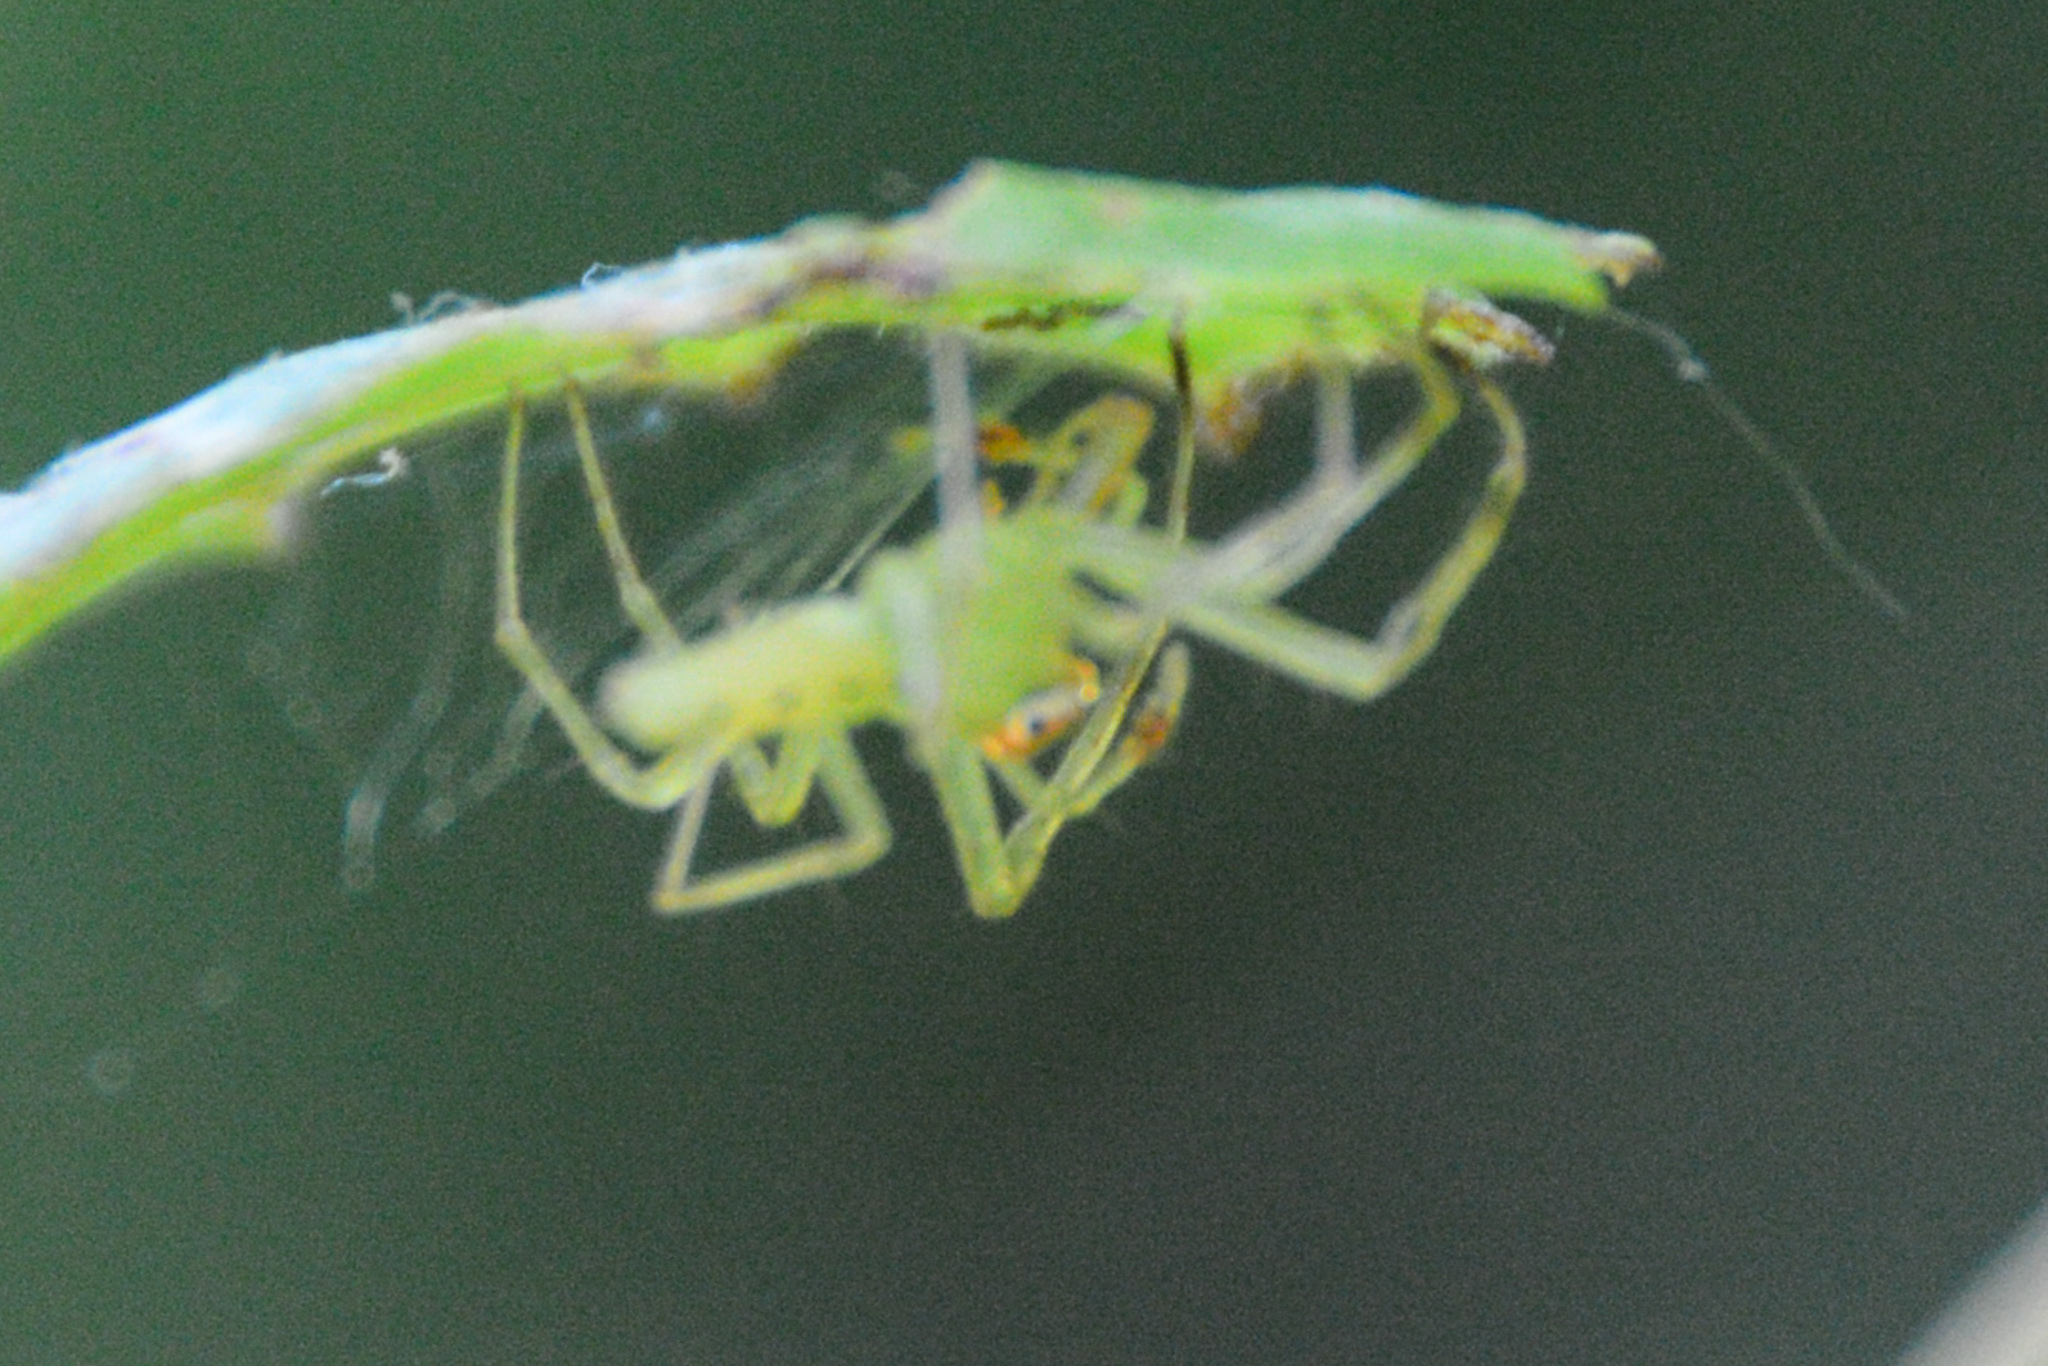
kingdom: Animalia
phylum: Arthropoda
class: Arachnida
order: Araneae
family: Salticidae
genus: Lyssomanes
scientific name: Lyssomanes viridis
